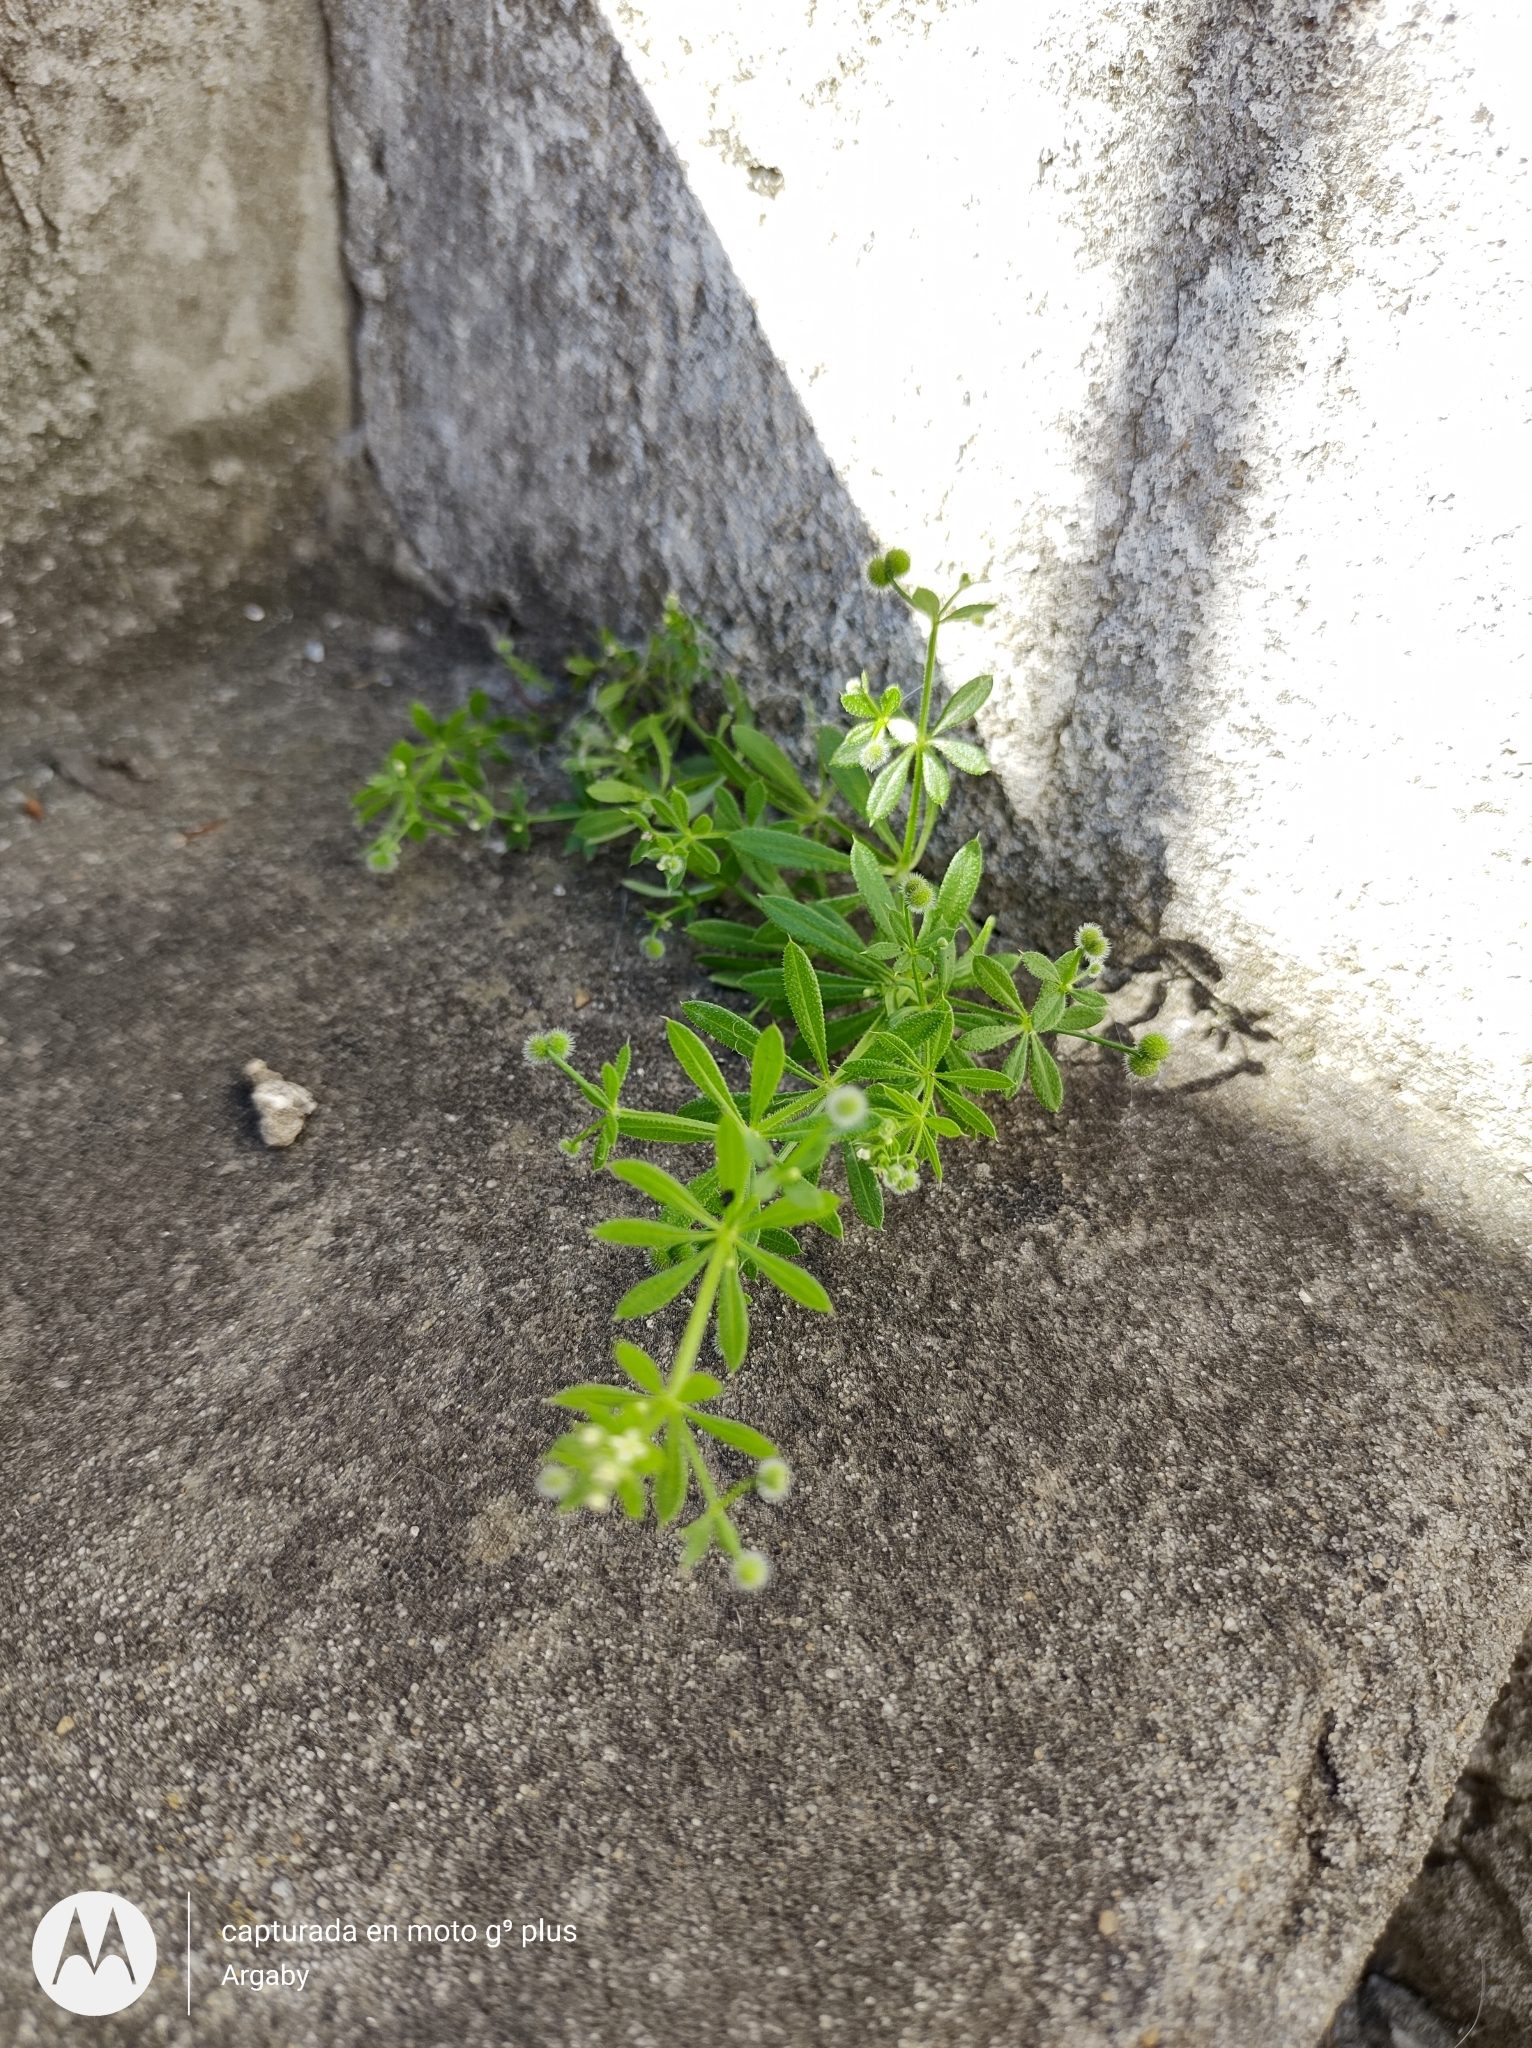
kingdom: Plantae
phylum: Tracheophyta
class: Magnoliopsida
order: Gentianales
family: Rubiaceae
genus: Galium
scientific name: Galium aparine
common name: Cleavers
